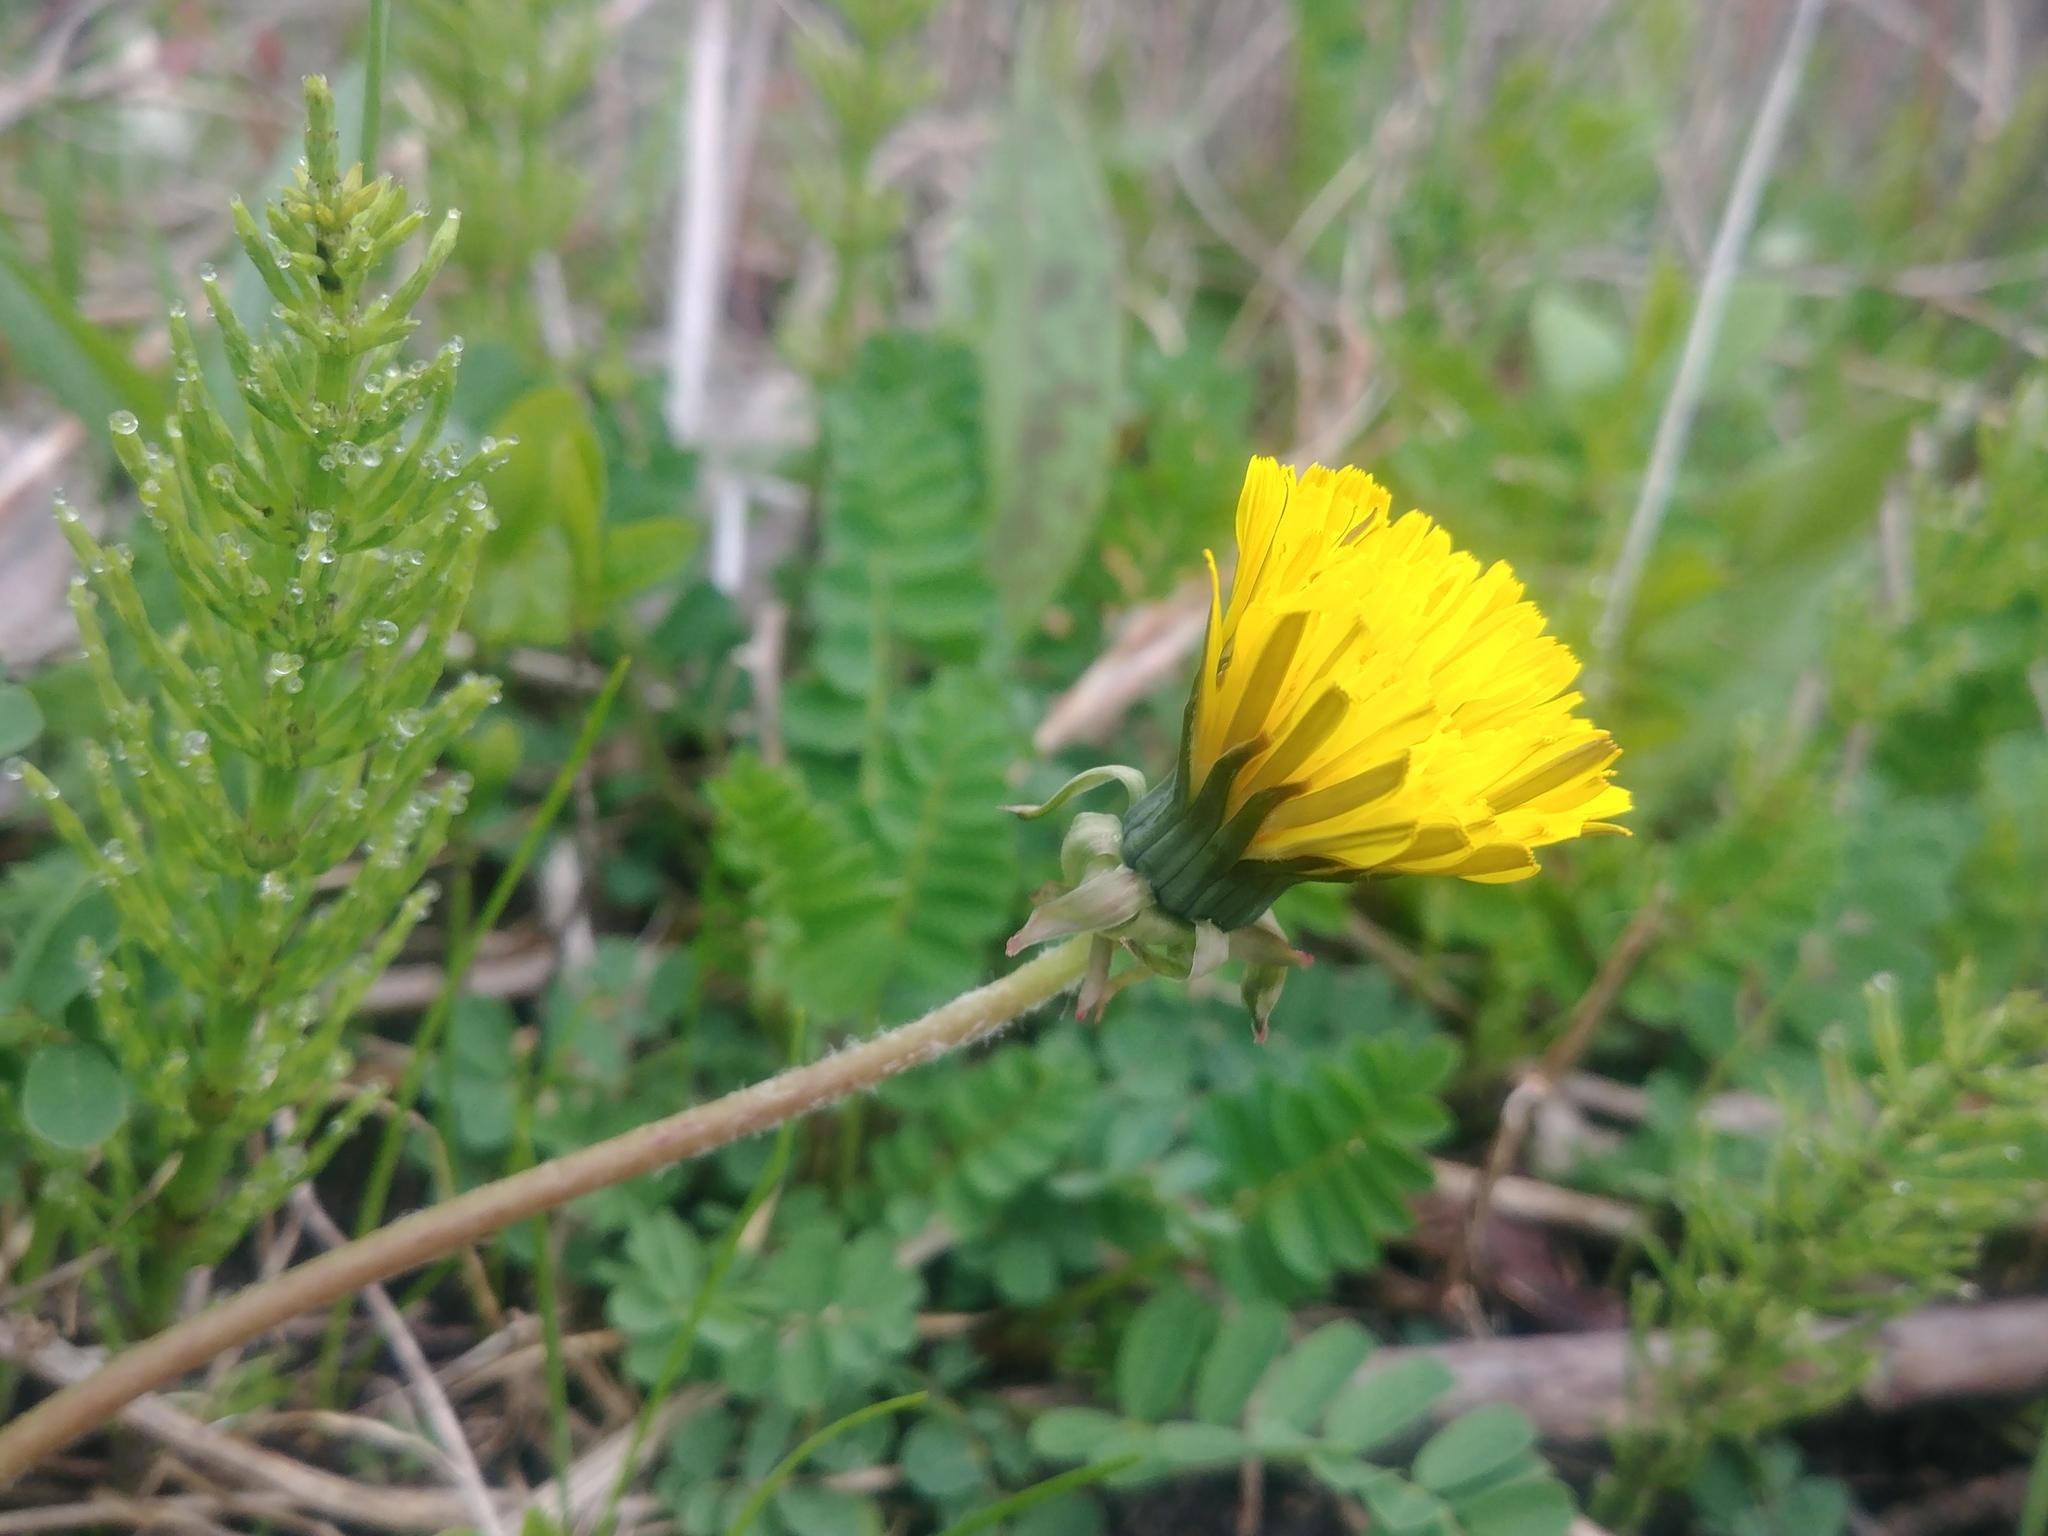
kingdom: Plantae
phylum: Tracheophyta
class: Magnoliopsida
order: Asterales
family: Asteraceae
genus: Taraxacum
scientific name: Taraxacum officinale
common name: Common dandelion
